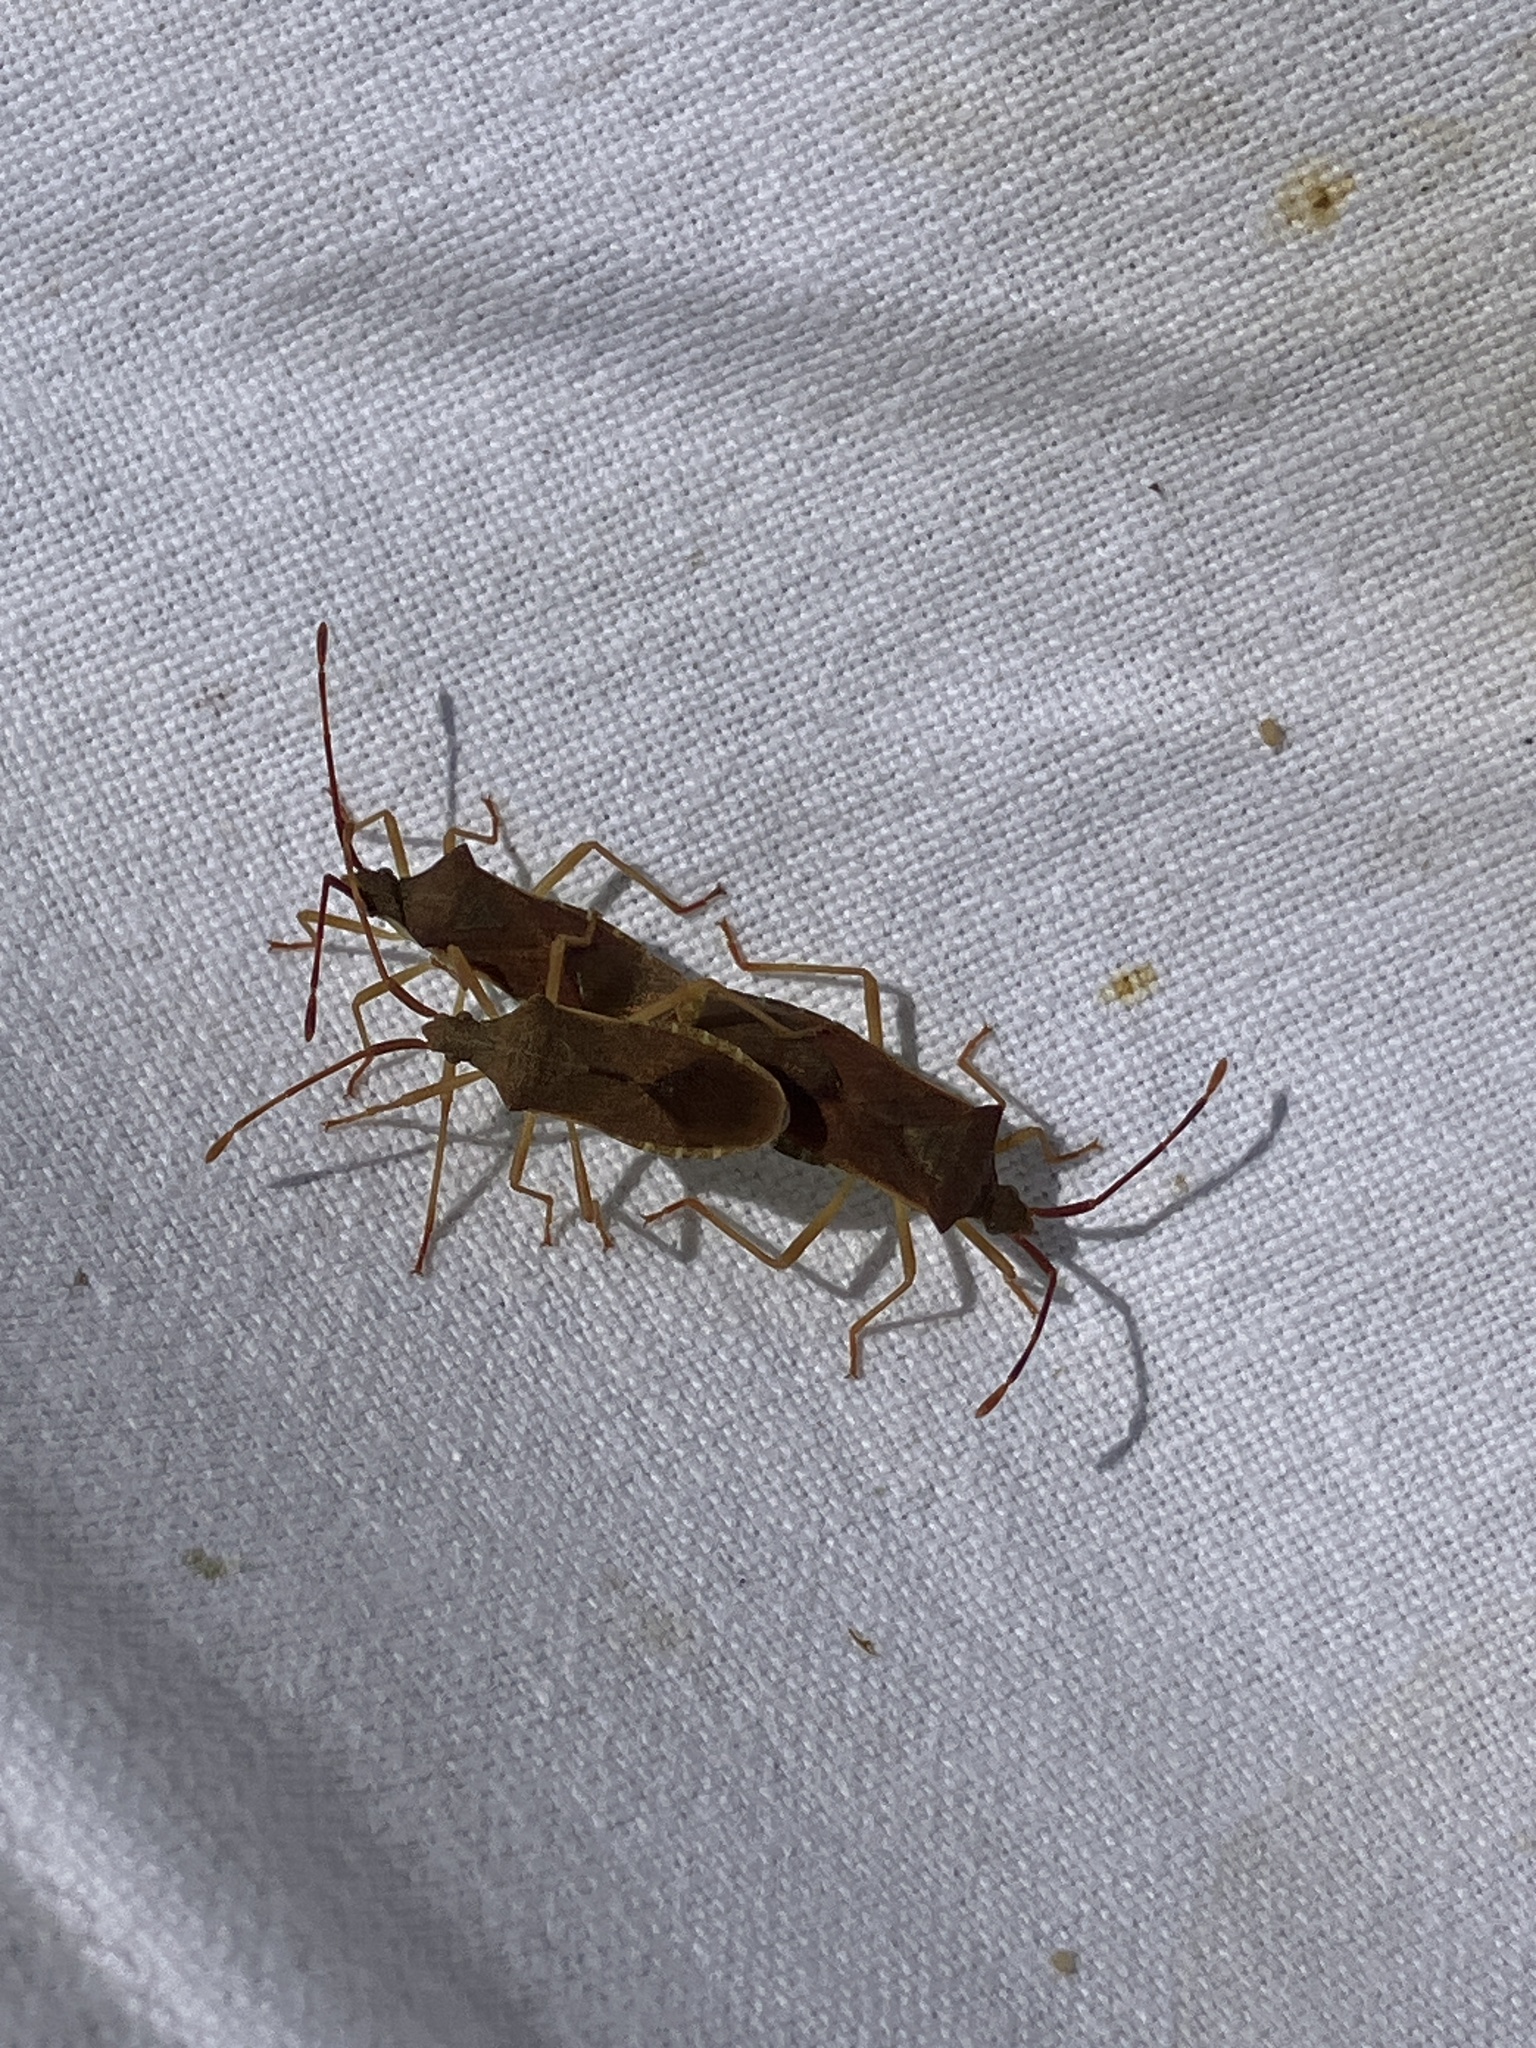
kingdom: Animalia
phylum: Arthropoda
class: Insecta
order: Hemiptera
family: Coreidae
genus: Gonocerus
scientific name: Gonocerus acuteangulatus
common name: Box bug
